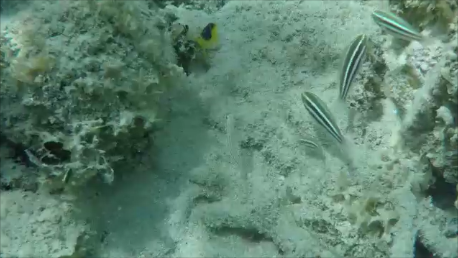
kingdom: Animalia
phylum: Chordata
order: Perciformes
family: Scaridae
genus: Scarus
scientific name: Scarus iseri
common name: Striped parrotfish
